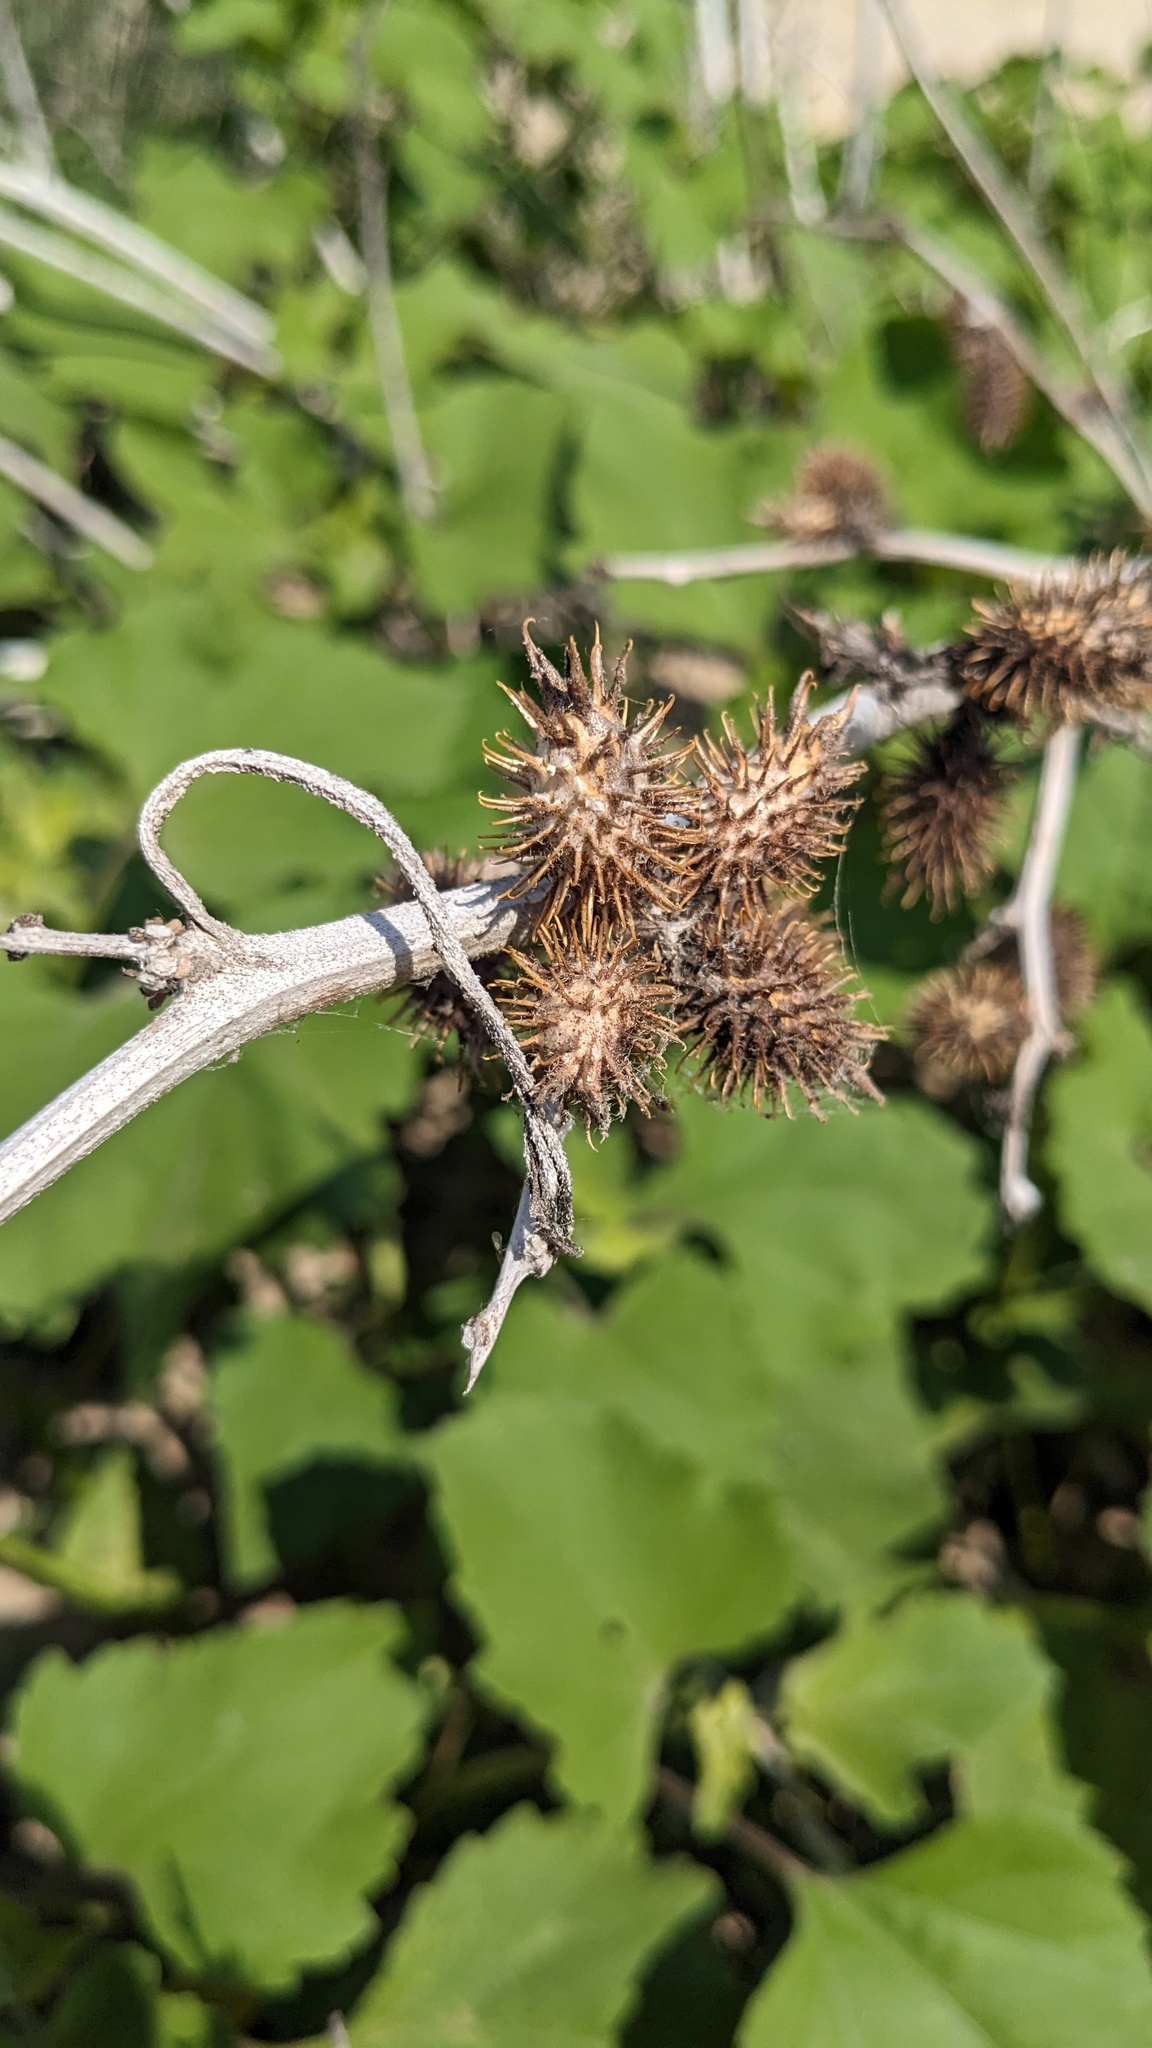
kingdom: Plantae
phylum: Tracheophyta
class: Magnoliopsida
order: Asterales
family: Asteraceae
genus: Xanthium
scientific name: Xanthium strumarium
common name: Rough cocklebur
